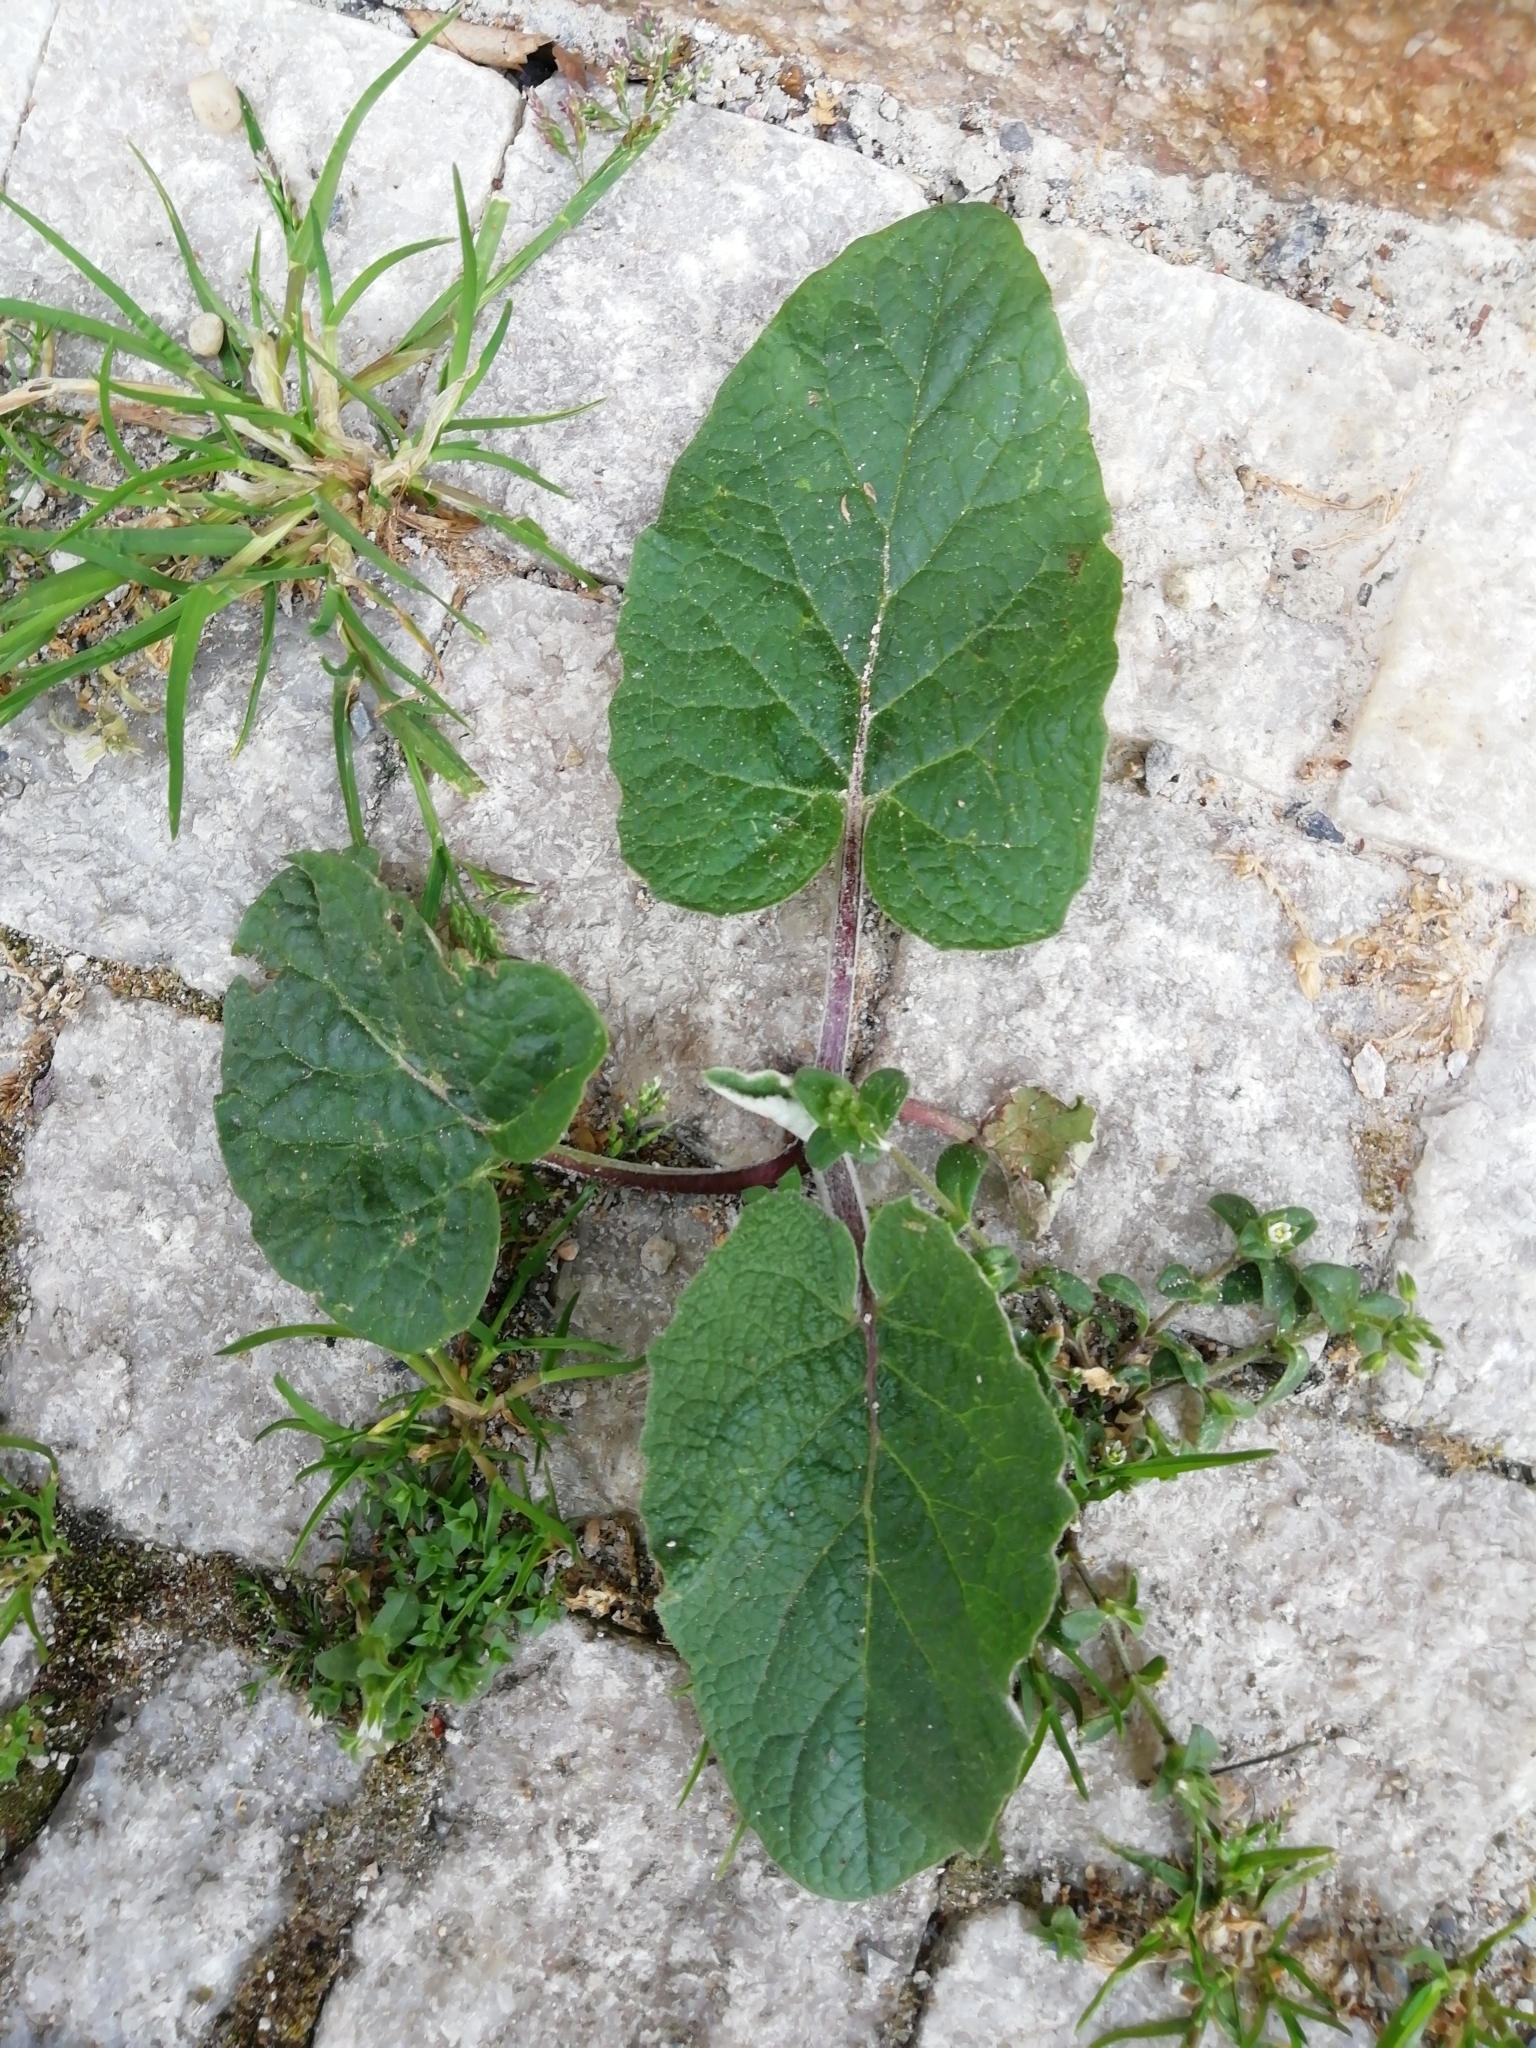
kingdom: Plantae
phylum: Tracheophyta
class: Magnoliopsida
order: Asterales
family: Asteraceae
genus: Arctium
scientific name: Arctium
